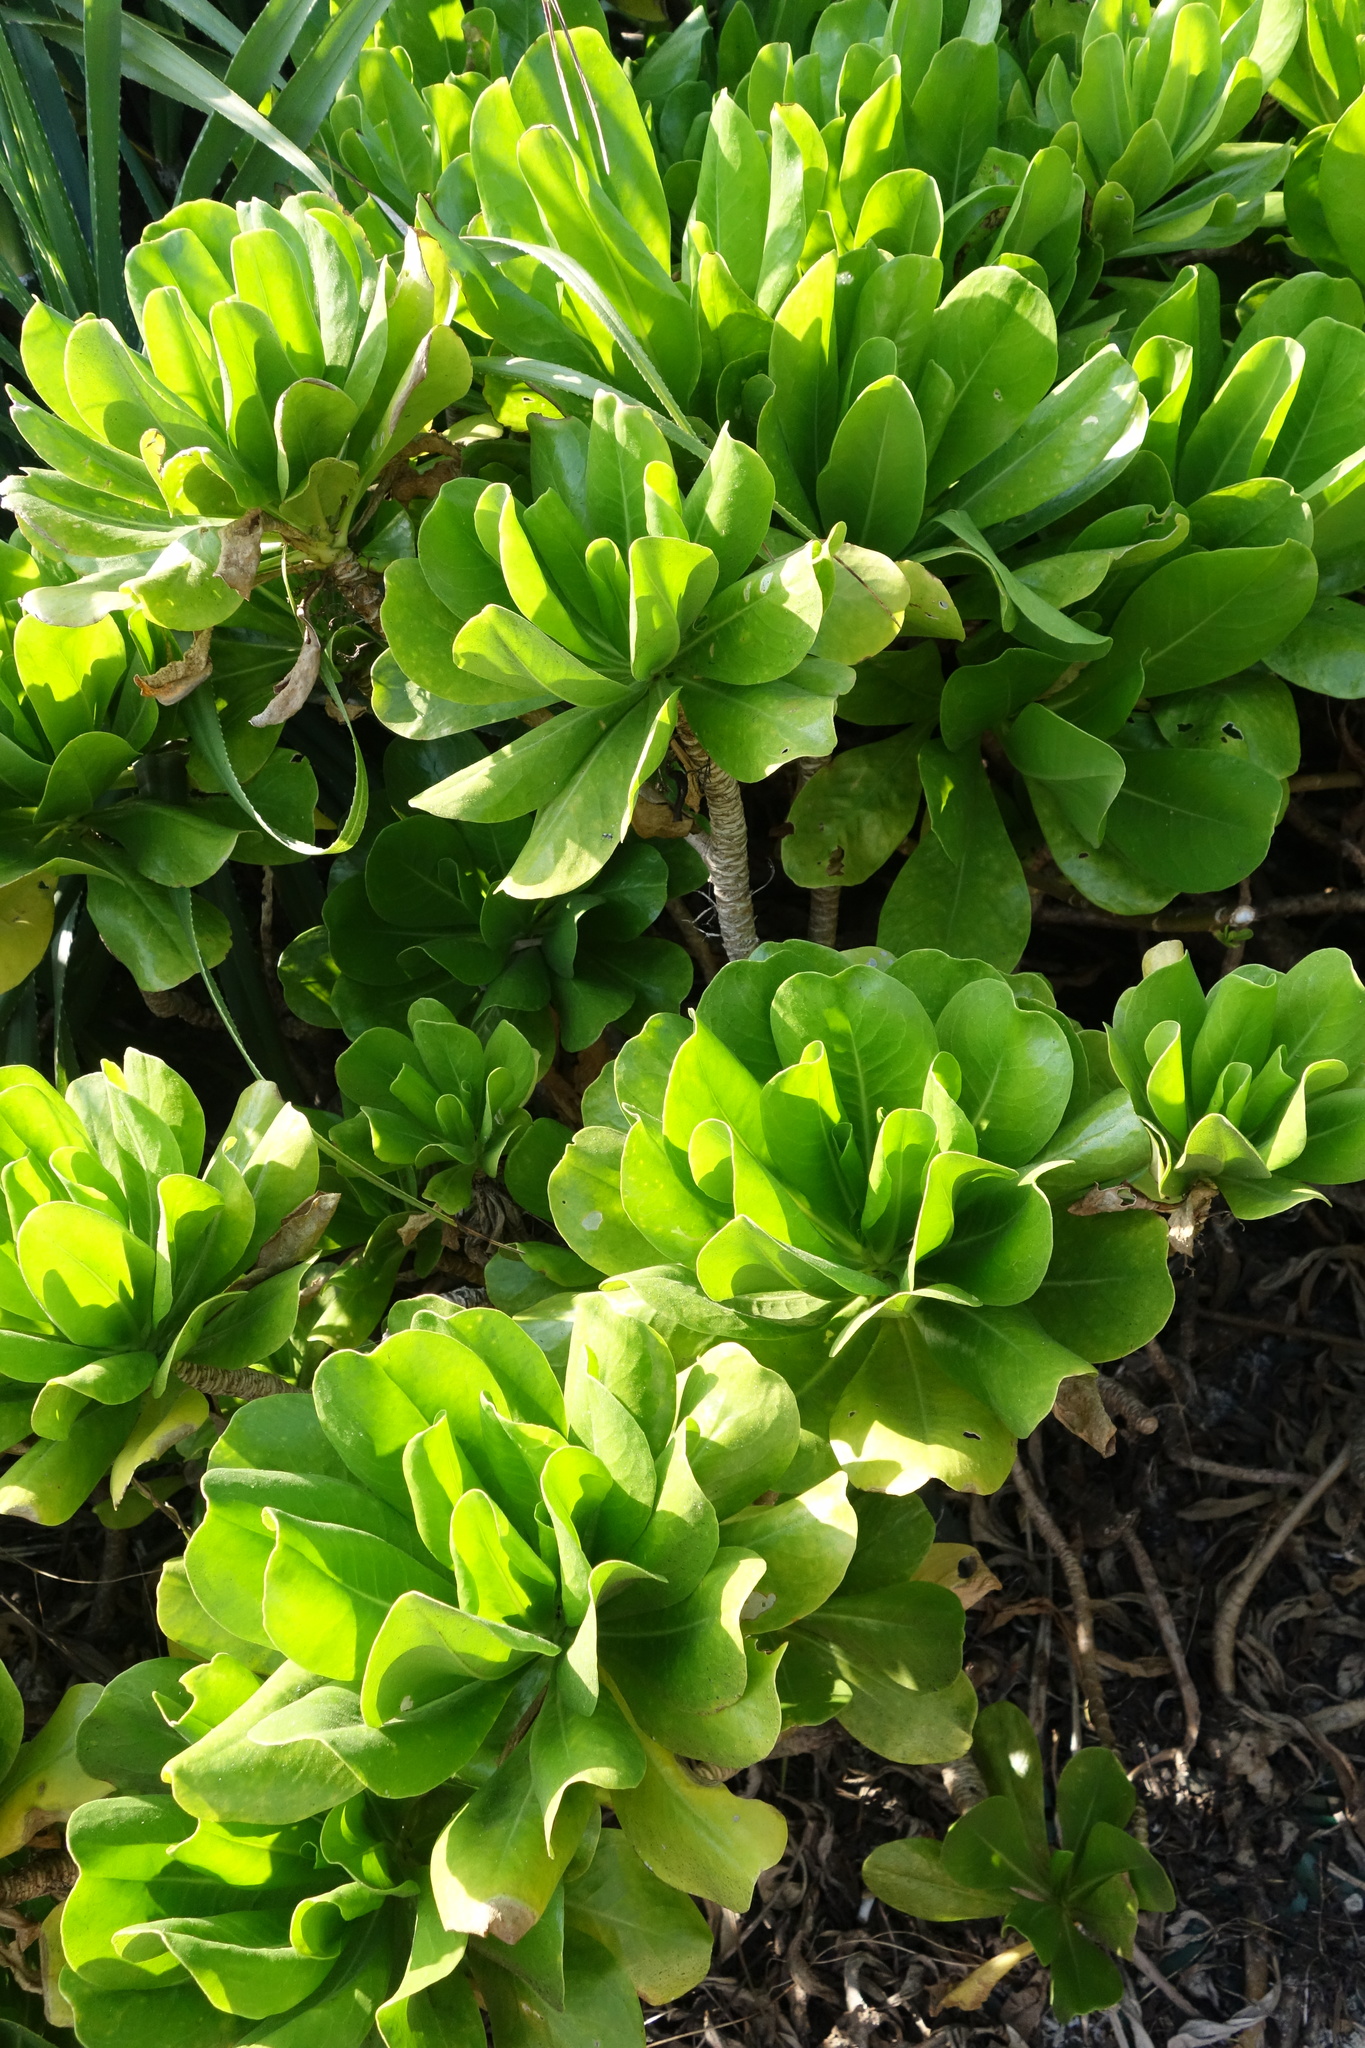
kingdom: Plantae
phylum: Tracheophyta
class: Magnoliopsida
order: Asterales
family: Goodeniaceae
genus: Scaevola
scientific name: Scaevola taccada
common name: Sea lettucetree
